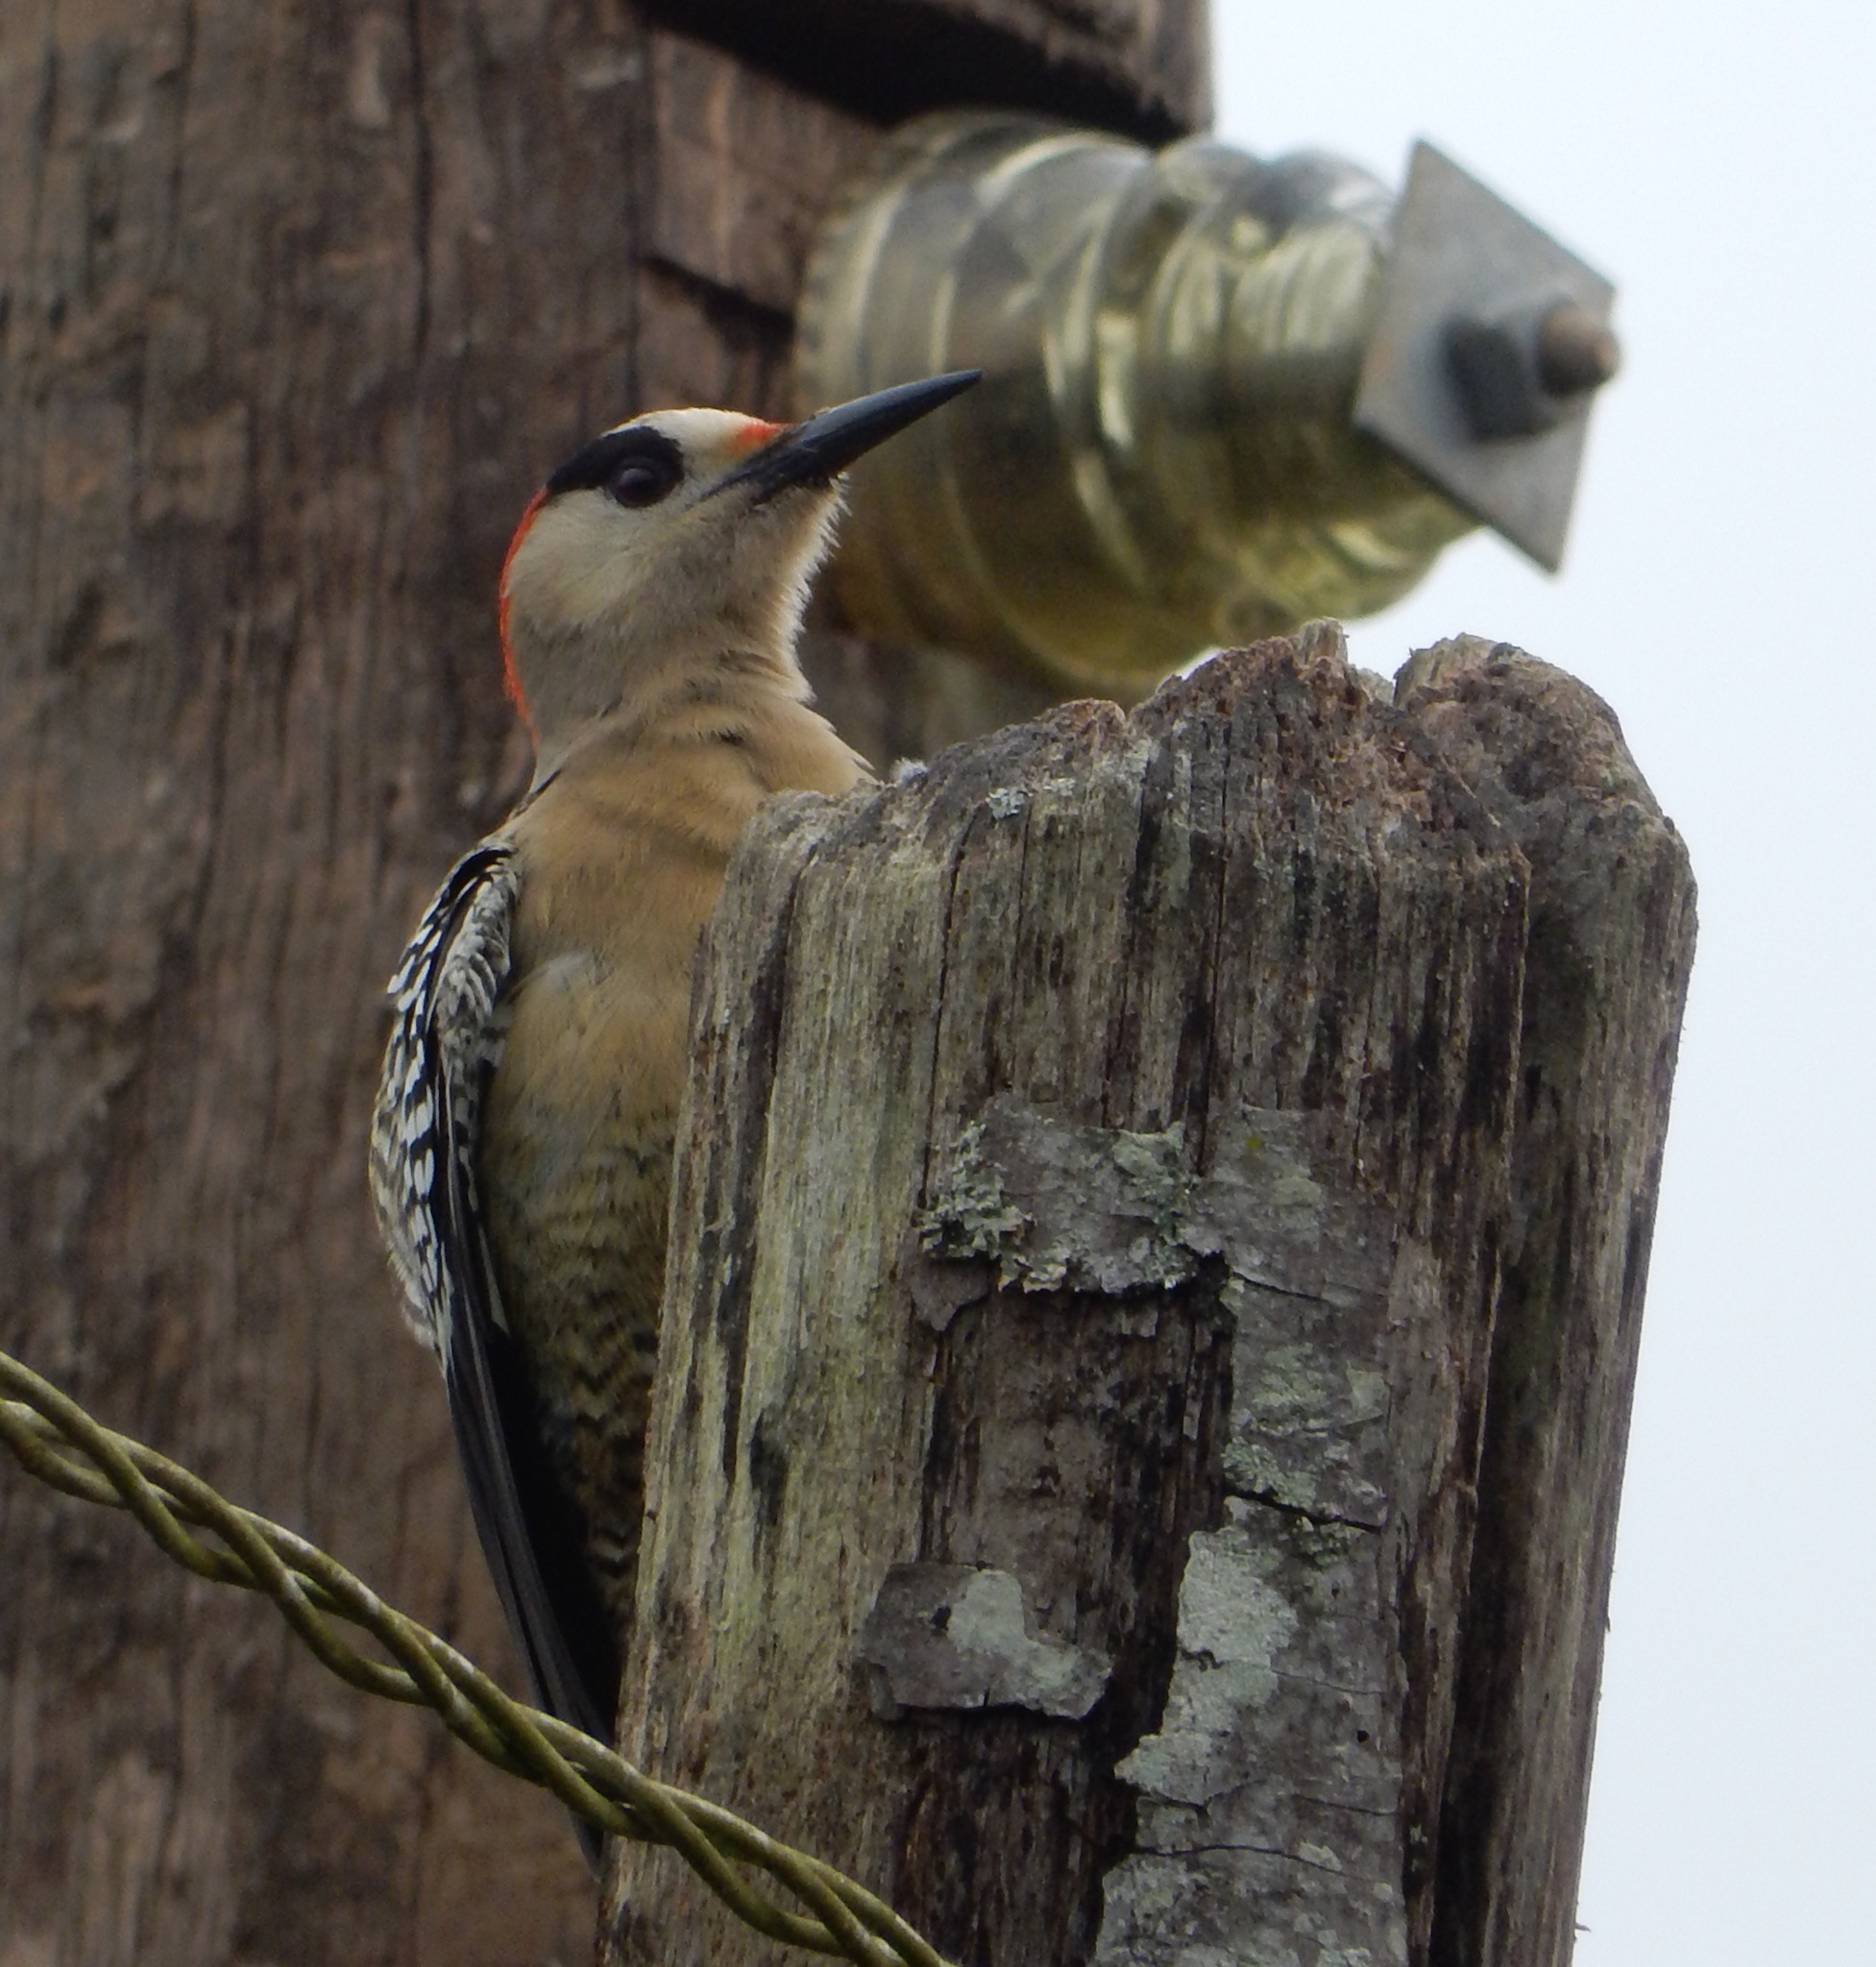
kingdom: Animalia
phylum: Chordata
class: Aves
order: Piciformes
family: Picidae
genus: Melanerpes
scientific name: Melanerpes superciliaris
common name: West indian woodpecker
